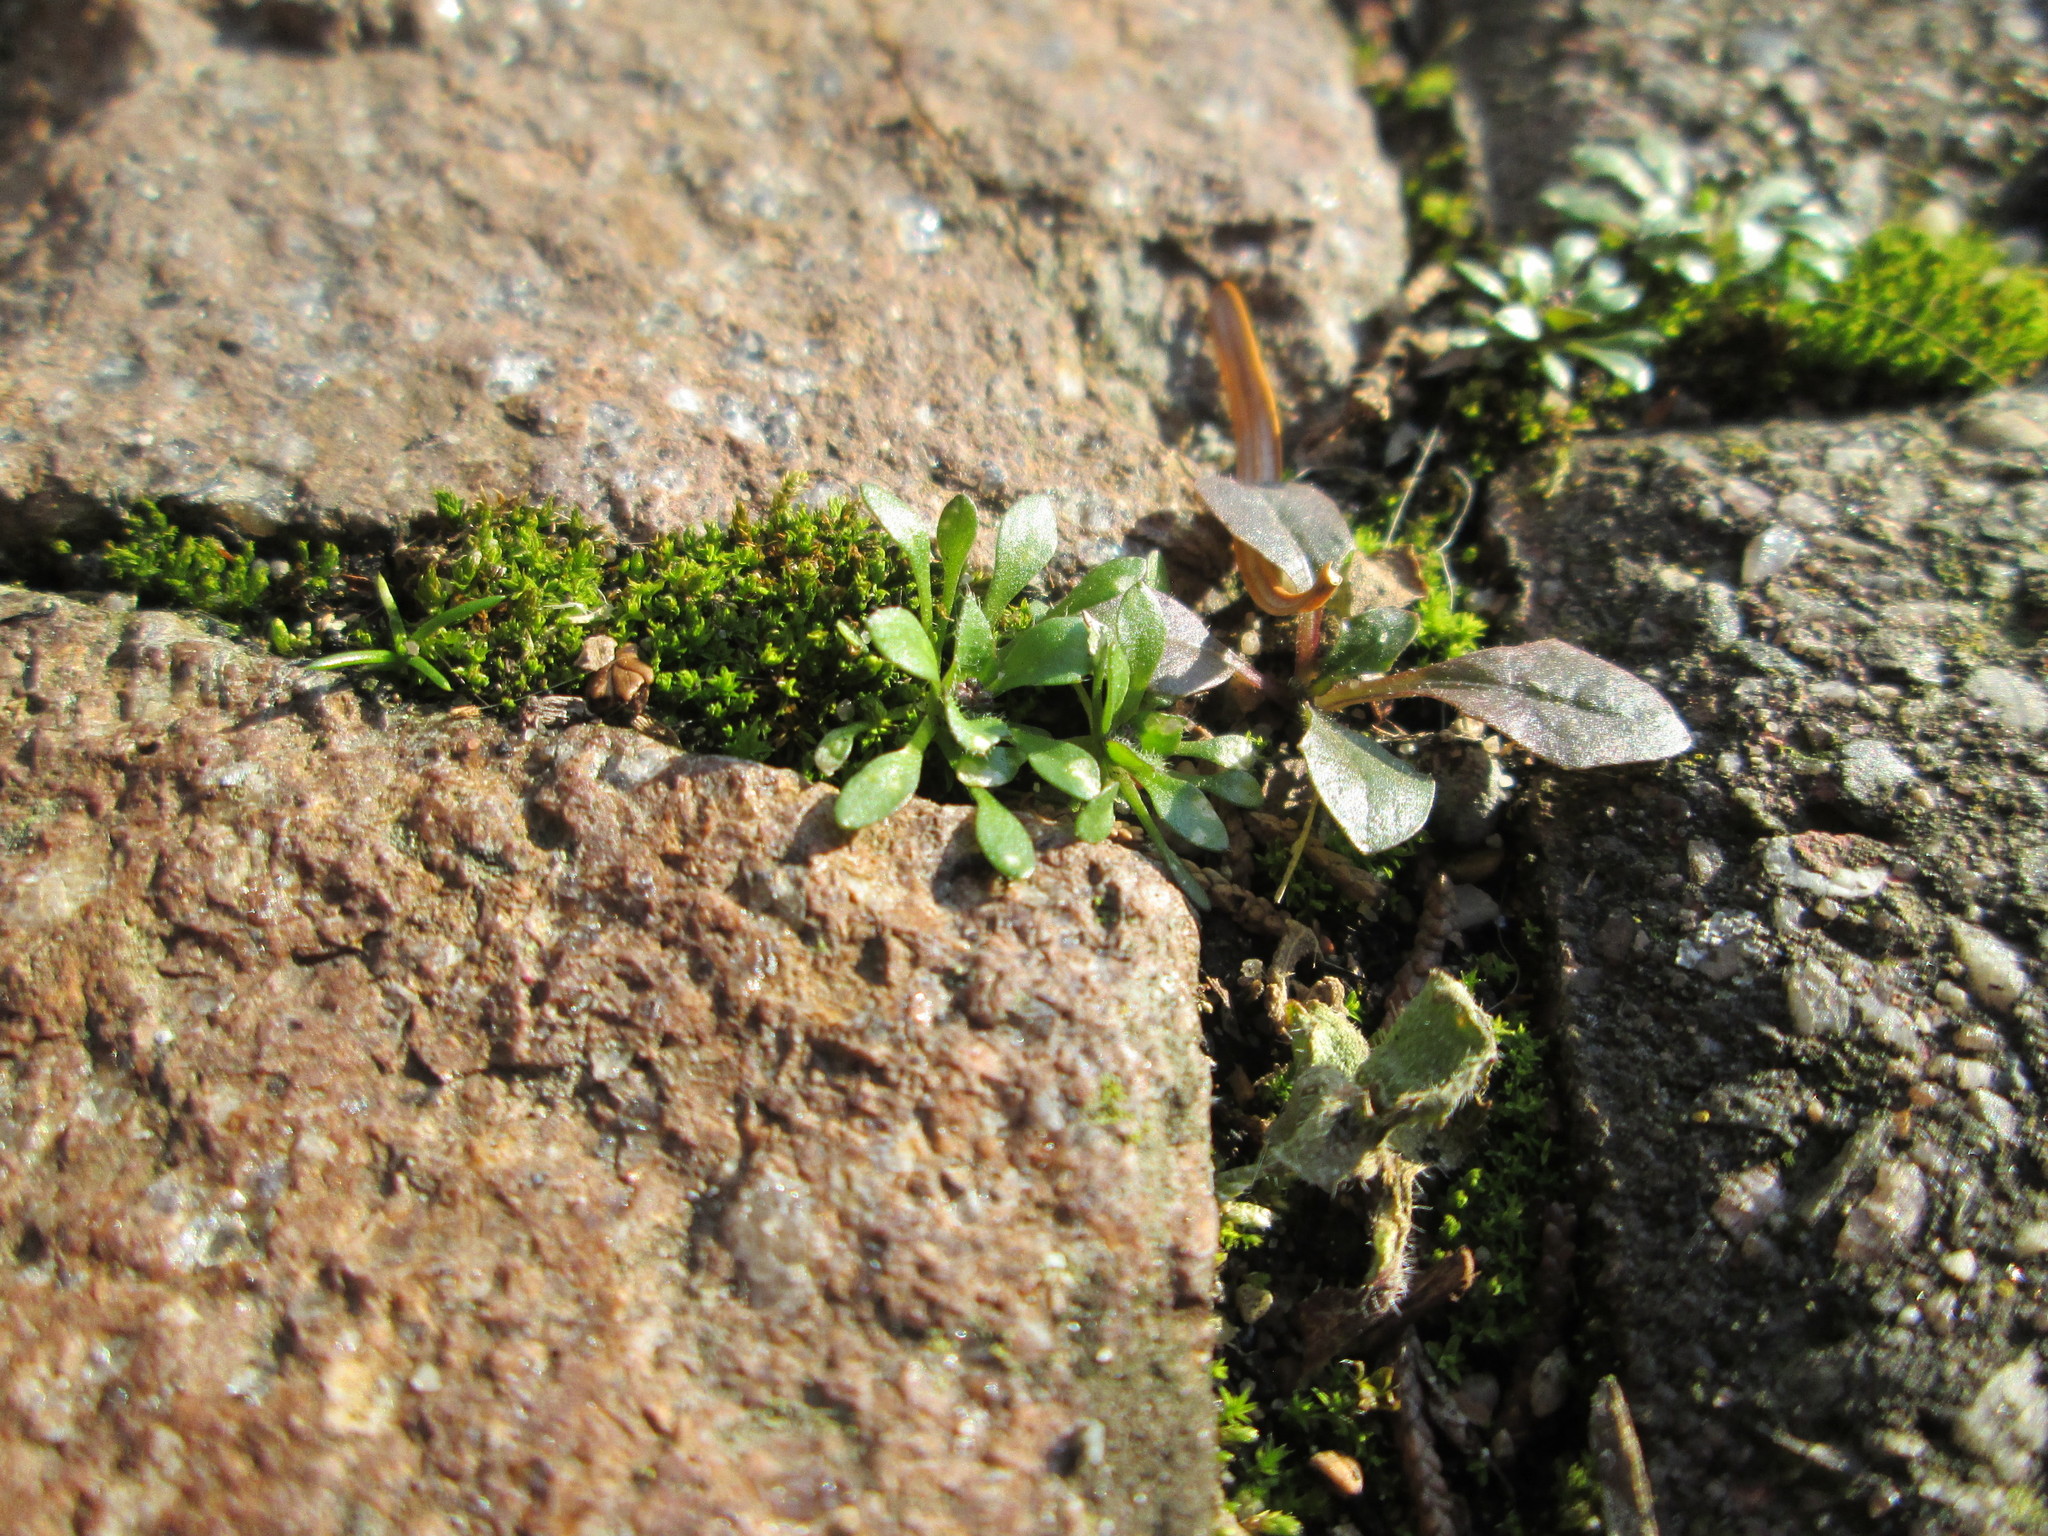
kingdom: Plantae
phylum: Tracheophyta
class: Magnoliopsida
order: Brassicales
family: Brassicaceae
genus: Draba
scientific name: Draba verna
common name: Spring draba
